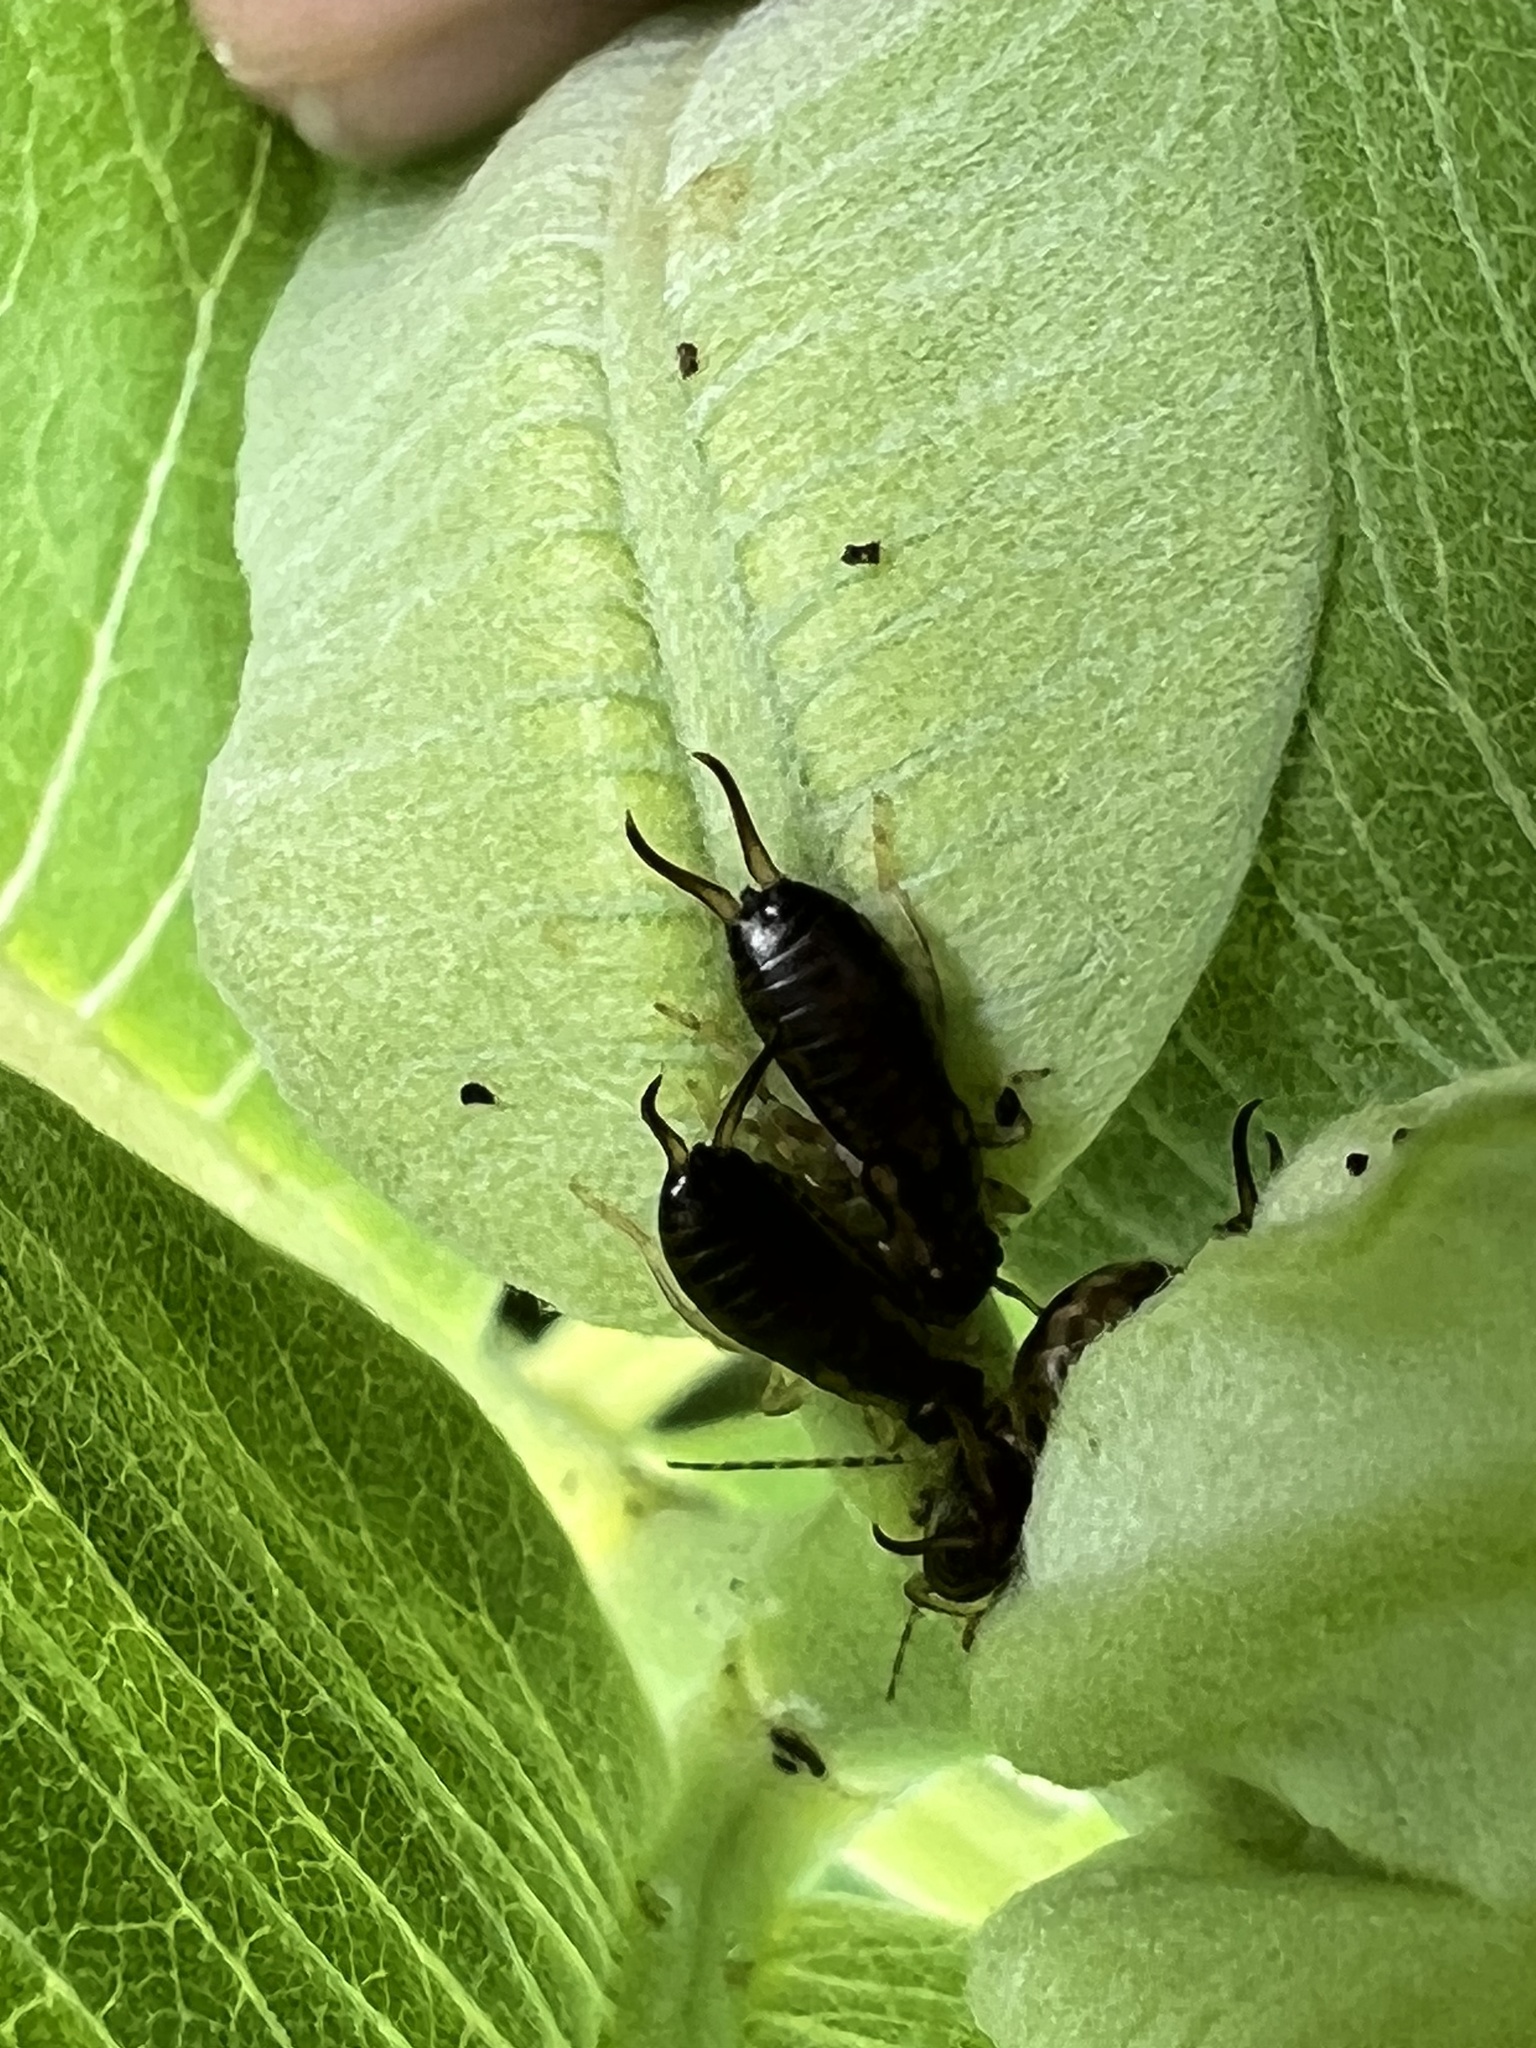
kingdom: Animalia
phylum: Arthropoda
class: Insecta
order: Dermaptera
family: Forficulidae
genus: Forficula
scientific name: Forficula
